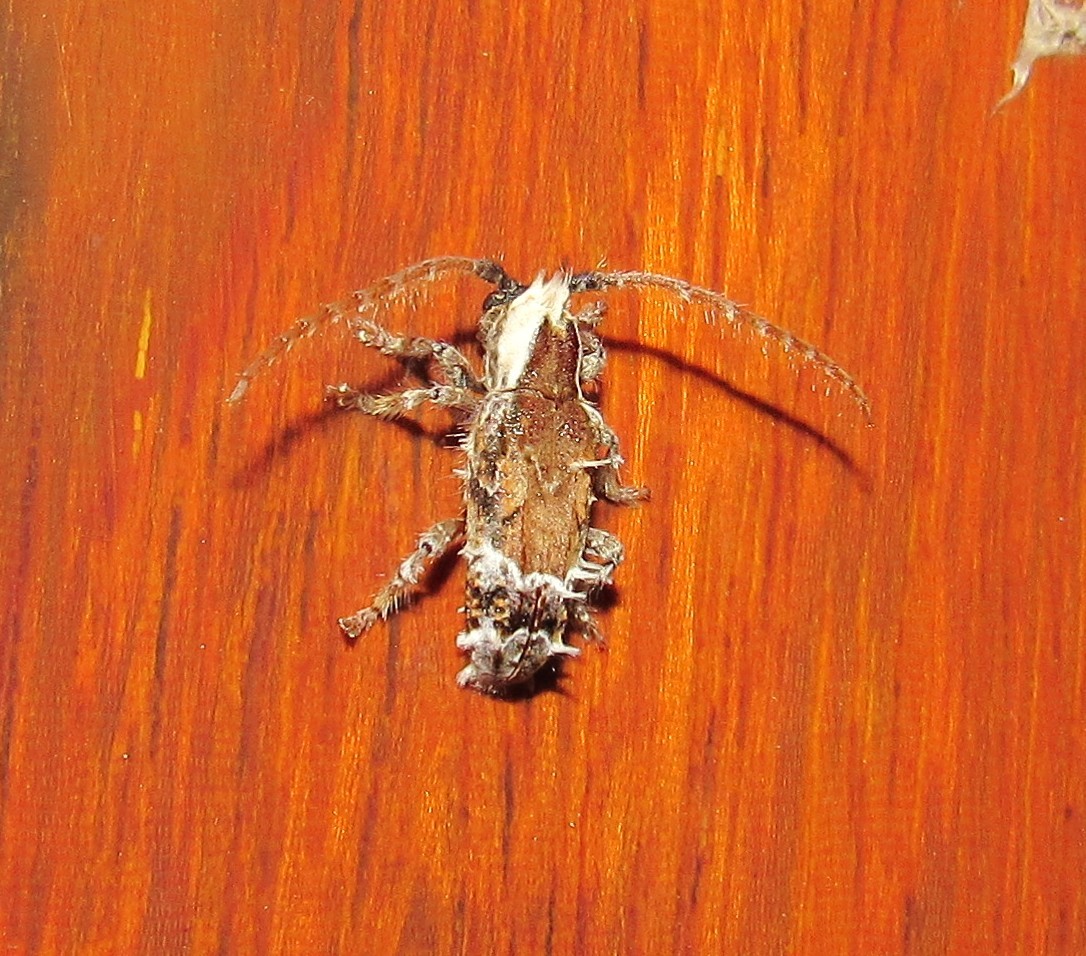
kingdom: Animalia
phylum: Arthropoda
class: Insecta
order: Coleoptera
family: Cerambycidae
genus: Desmiphora
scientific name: Desmiphora cucullata
